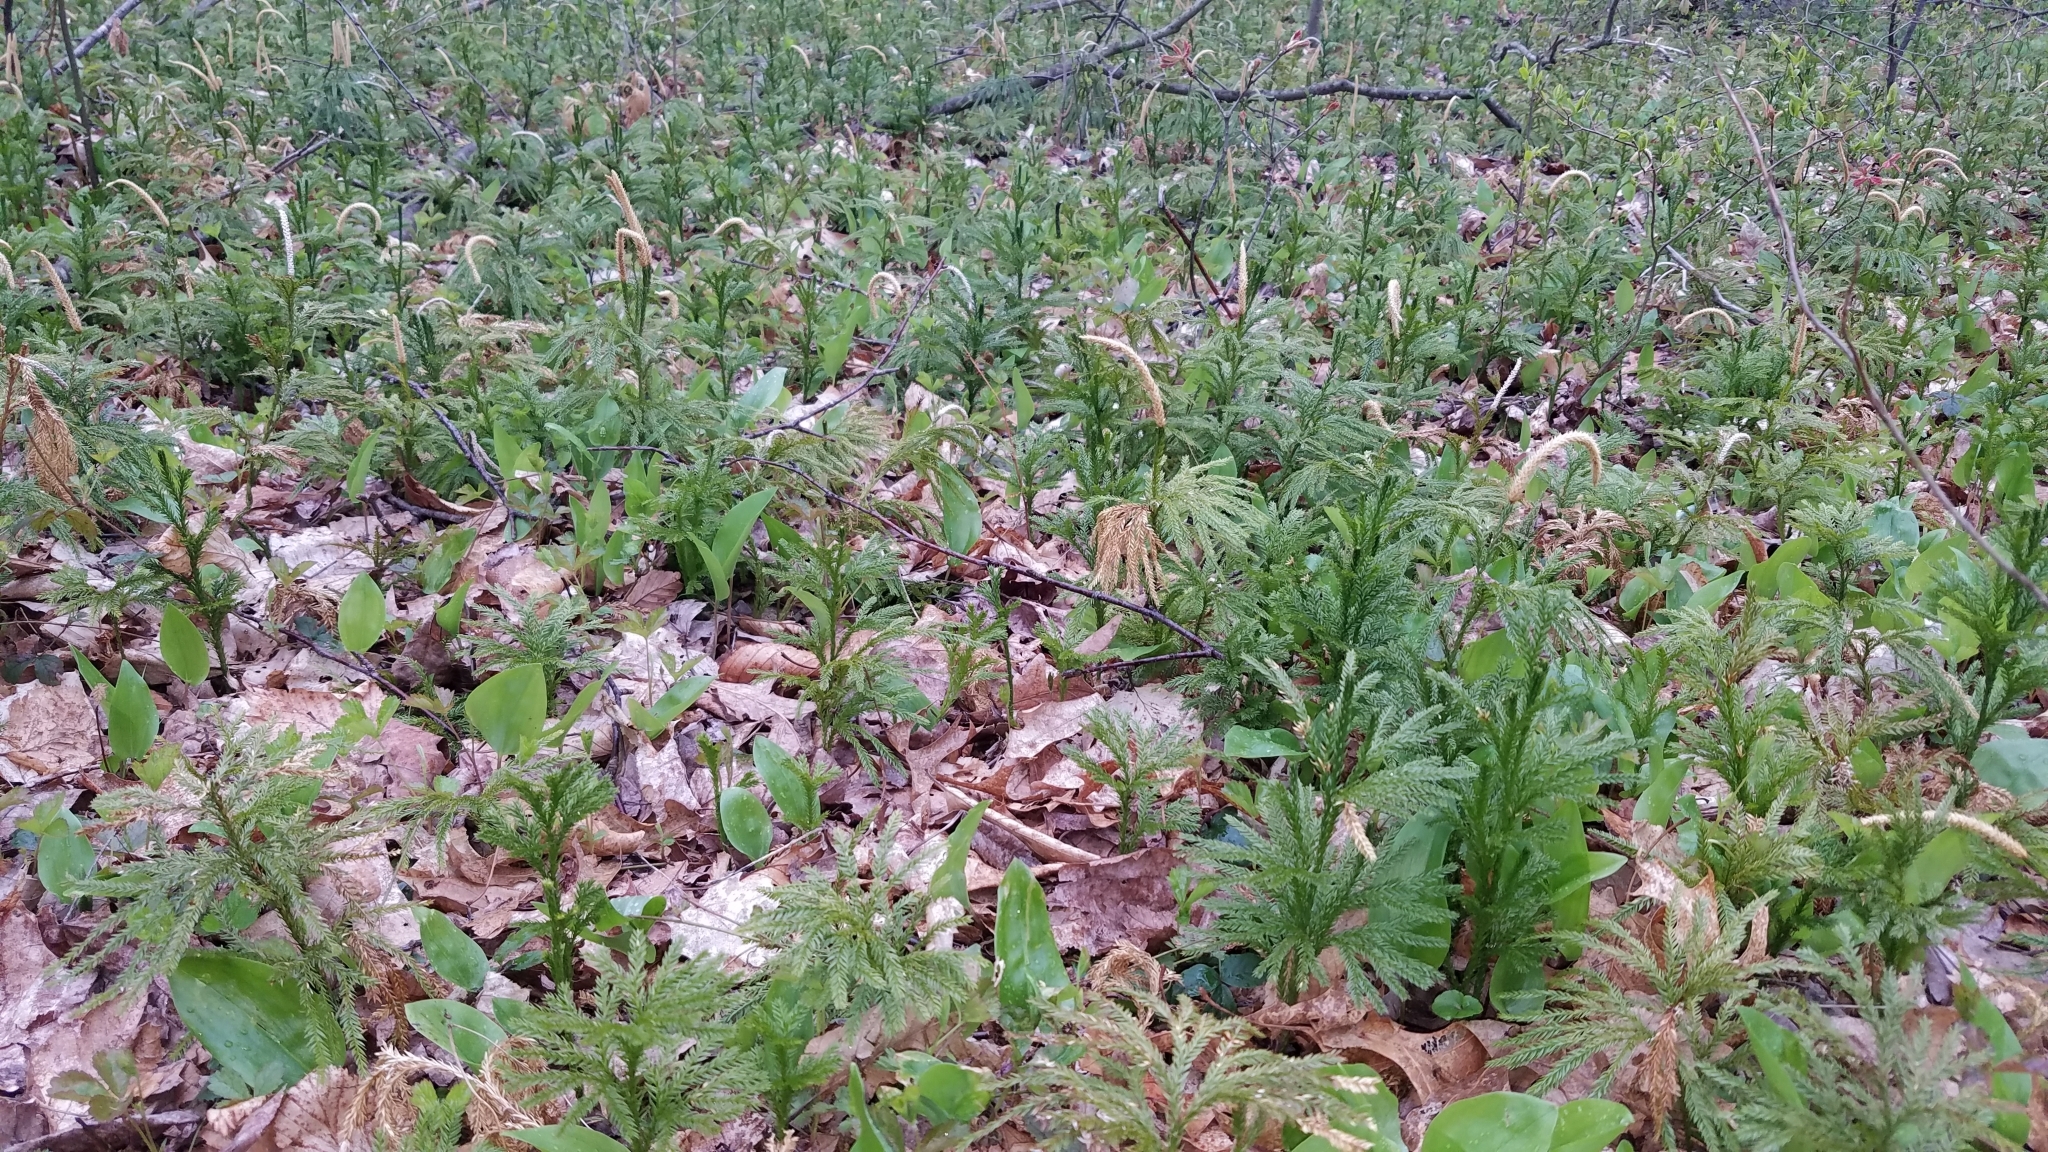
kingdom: Plantae
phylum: Tracheophyta
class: Lycopodiopsida
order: Lycopodiales
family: Lycopodiaceae
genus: Dendrolycopodium
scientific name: Dendrolycopodium obscurum
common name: Common ground-pine
